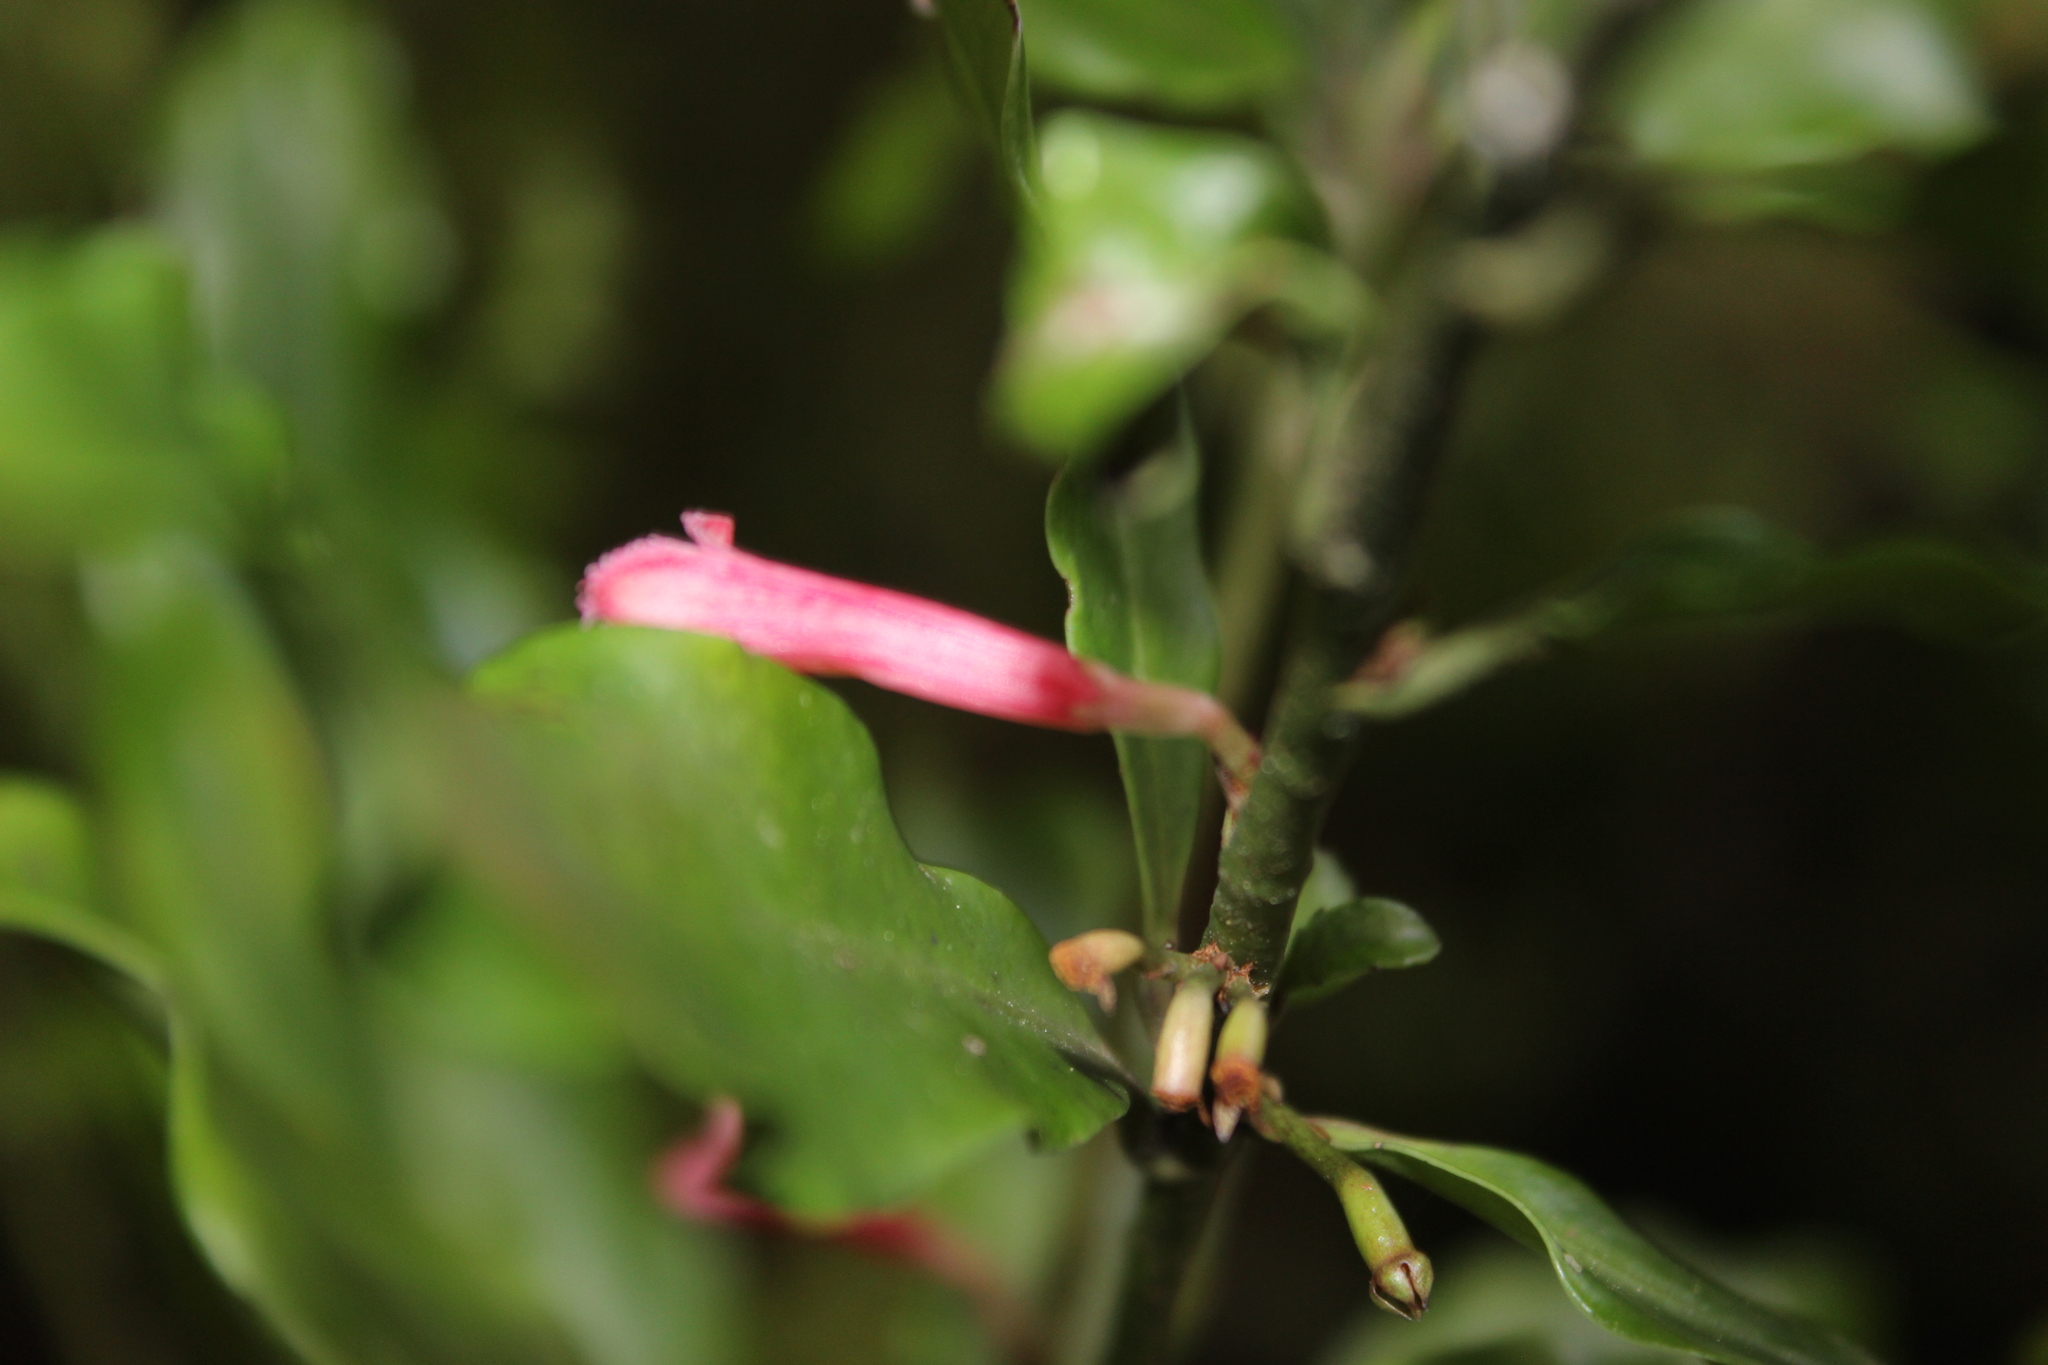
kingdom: Plantae
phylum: Tracheophyta
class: Magnoliopsida
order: Asterales
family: Alseuosmiaceae
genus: Alseuosmia
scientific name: Alseuosmia macrophylla
